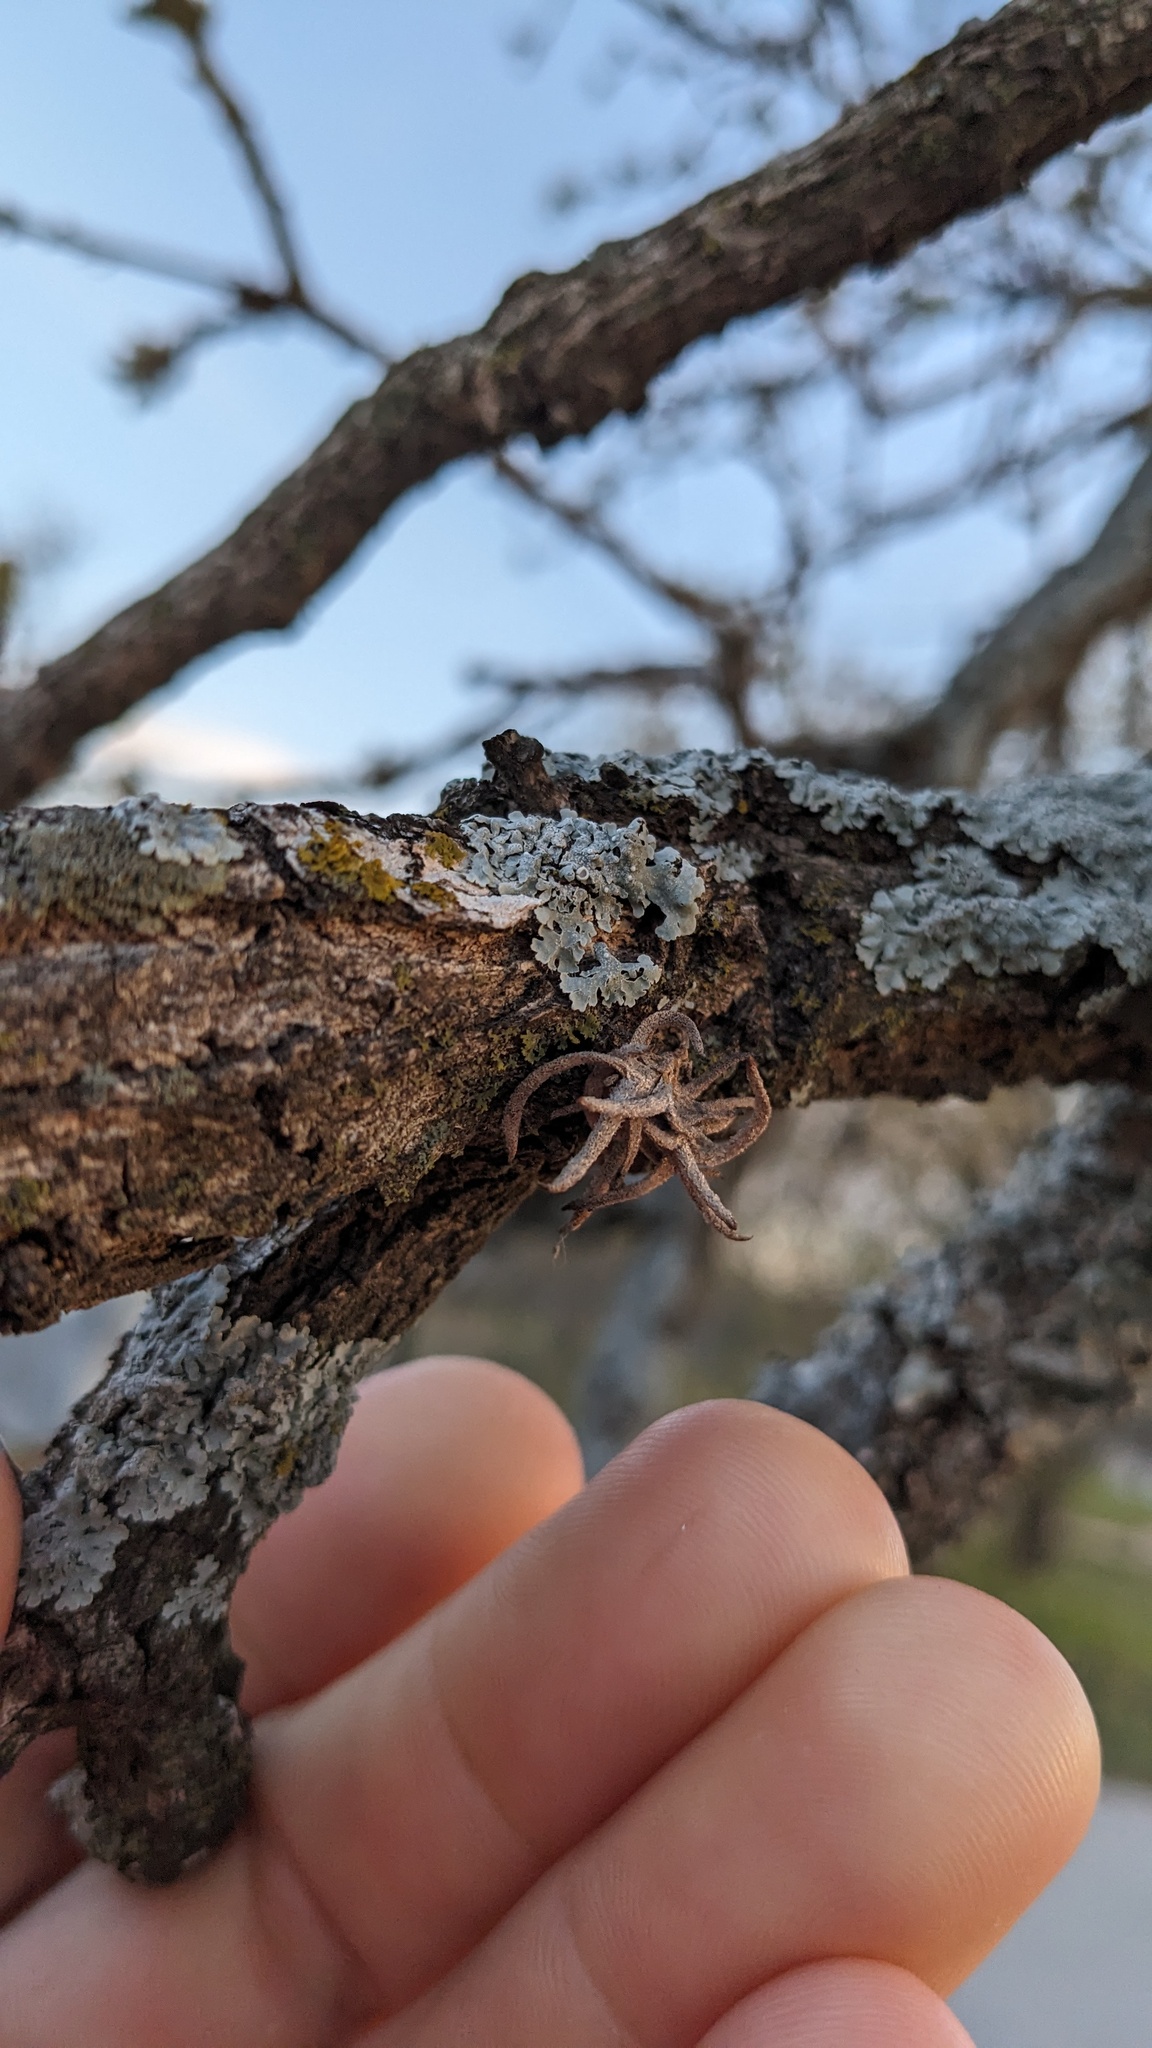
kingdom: Plantae
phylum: Tracheophyta
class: Liliopsida
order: Poales
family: Bromeliaceae
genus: Tillandsia
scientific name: Tillandsia recurvata
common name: Small ballmoss
